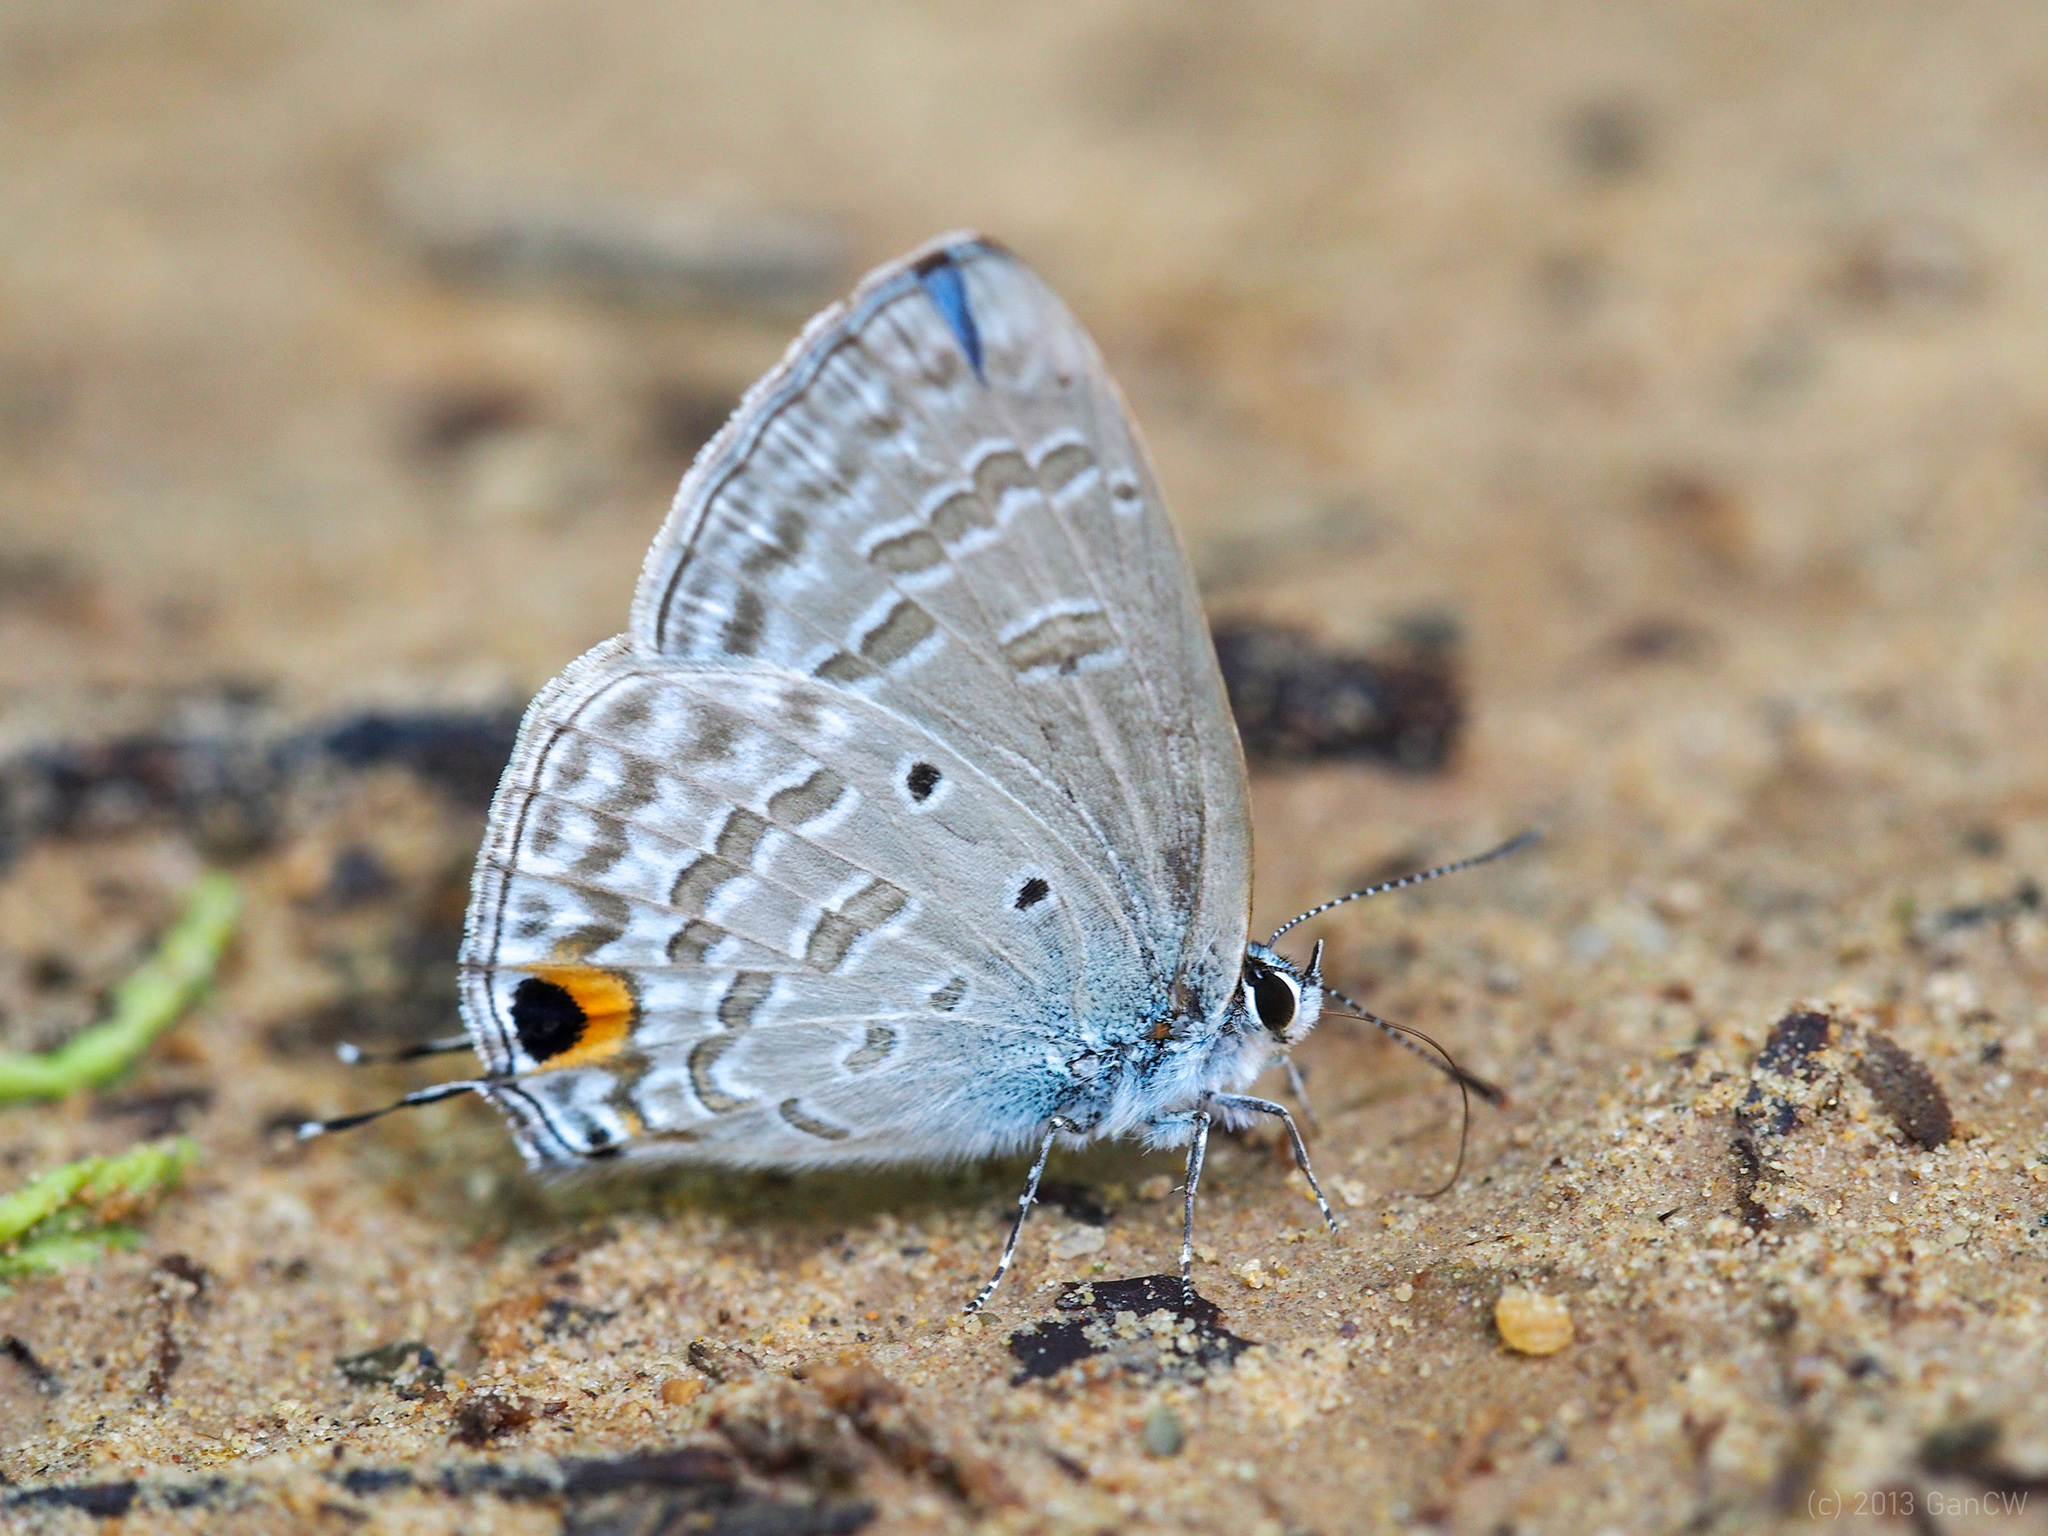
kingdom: Animalia
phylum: Arthropoda
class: Insecta
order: Lepidoptera
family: Lycaenidae
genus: Catochrysops
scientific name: Catochrysops panormus
